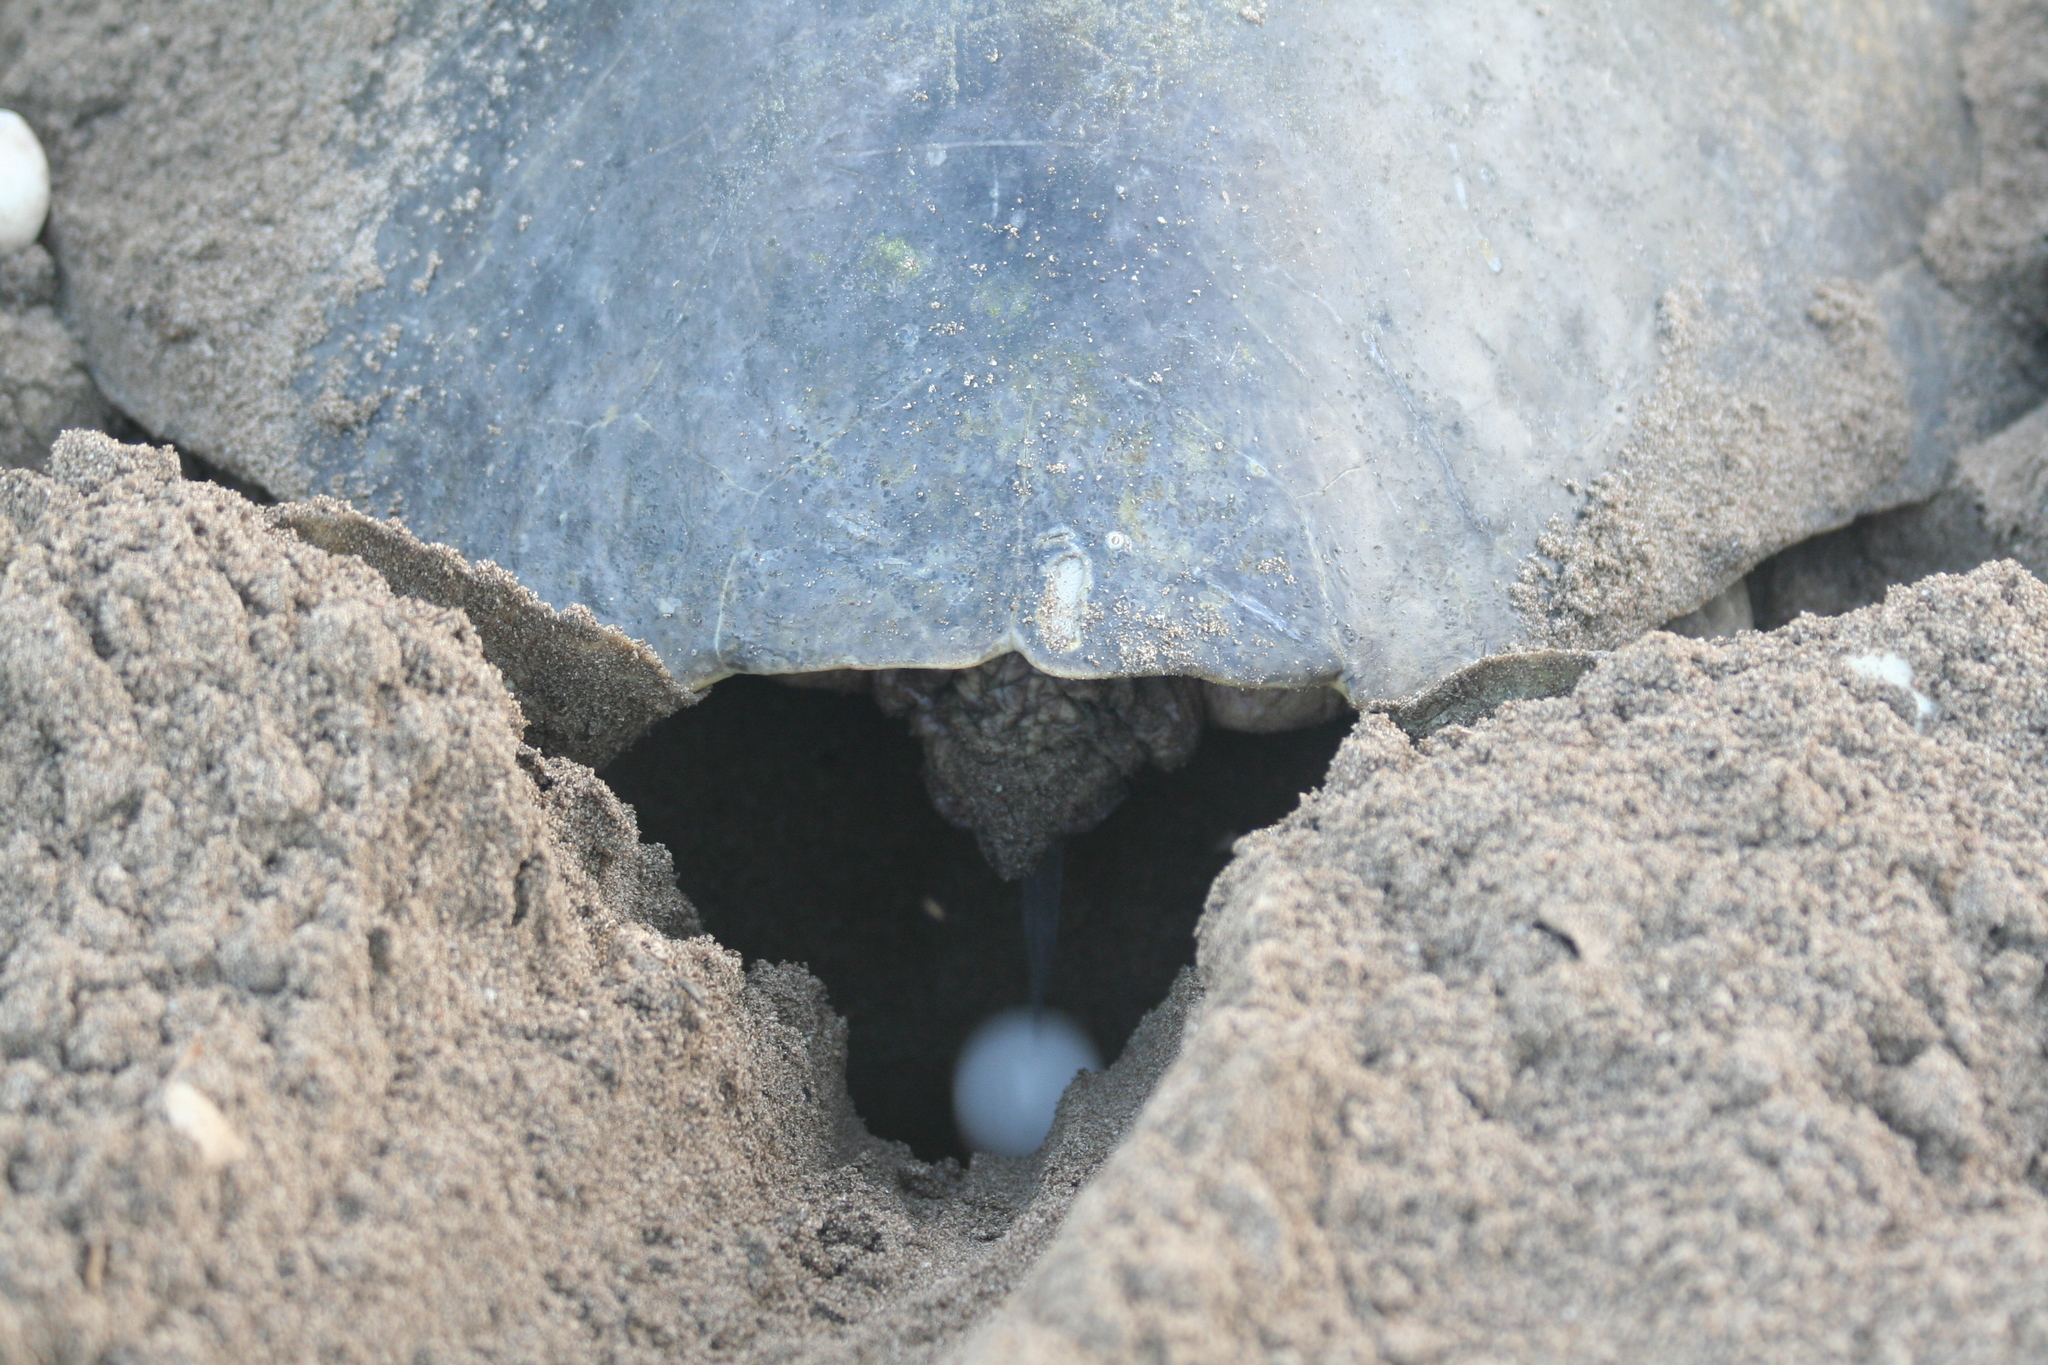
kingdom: Animalia
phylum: Chordata
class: Testudines
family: Cheloniidae
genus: Lepidochelys
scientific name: Lepidochelys olivacea
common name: Olive ridley
